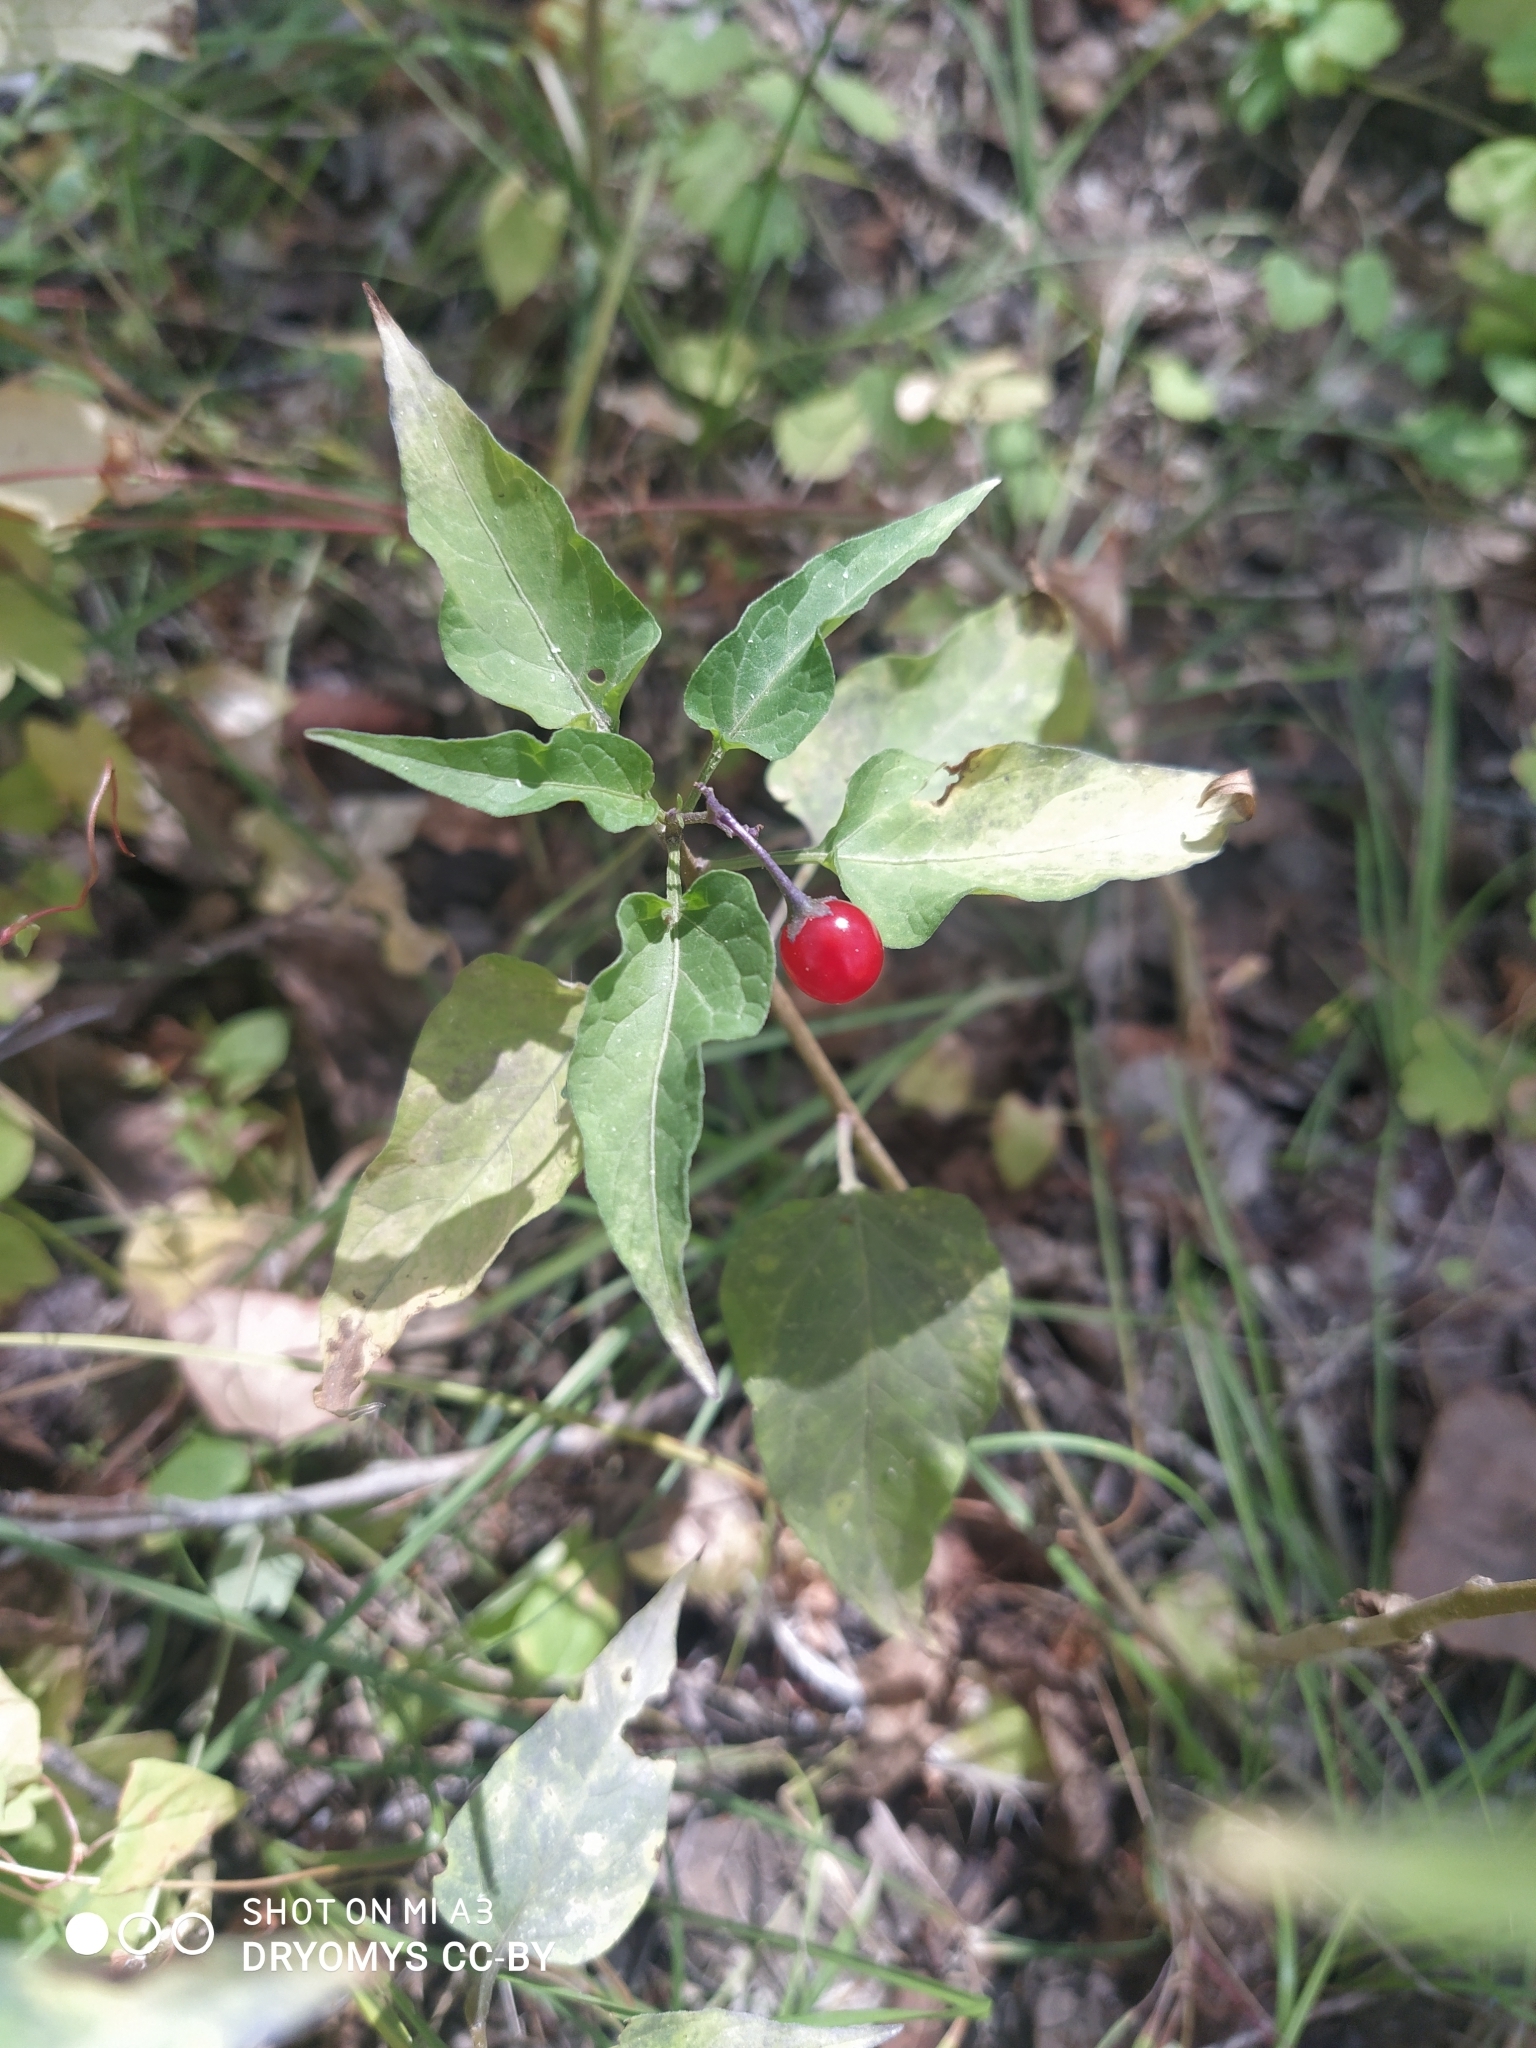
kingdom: Plantae
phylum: Tracheophyta
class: Magnoliopsida
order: Solanales
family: Solanaceae
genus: Solanum
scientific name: Solanum dulcamara
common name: Climbing nightshade
